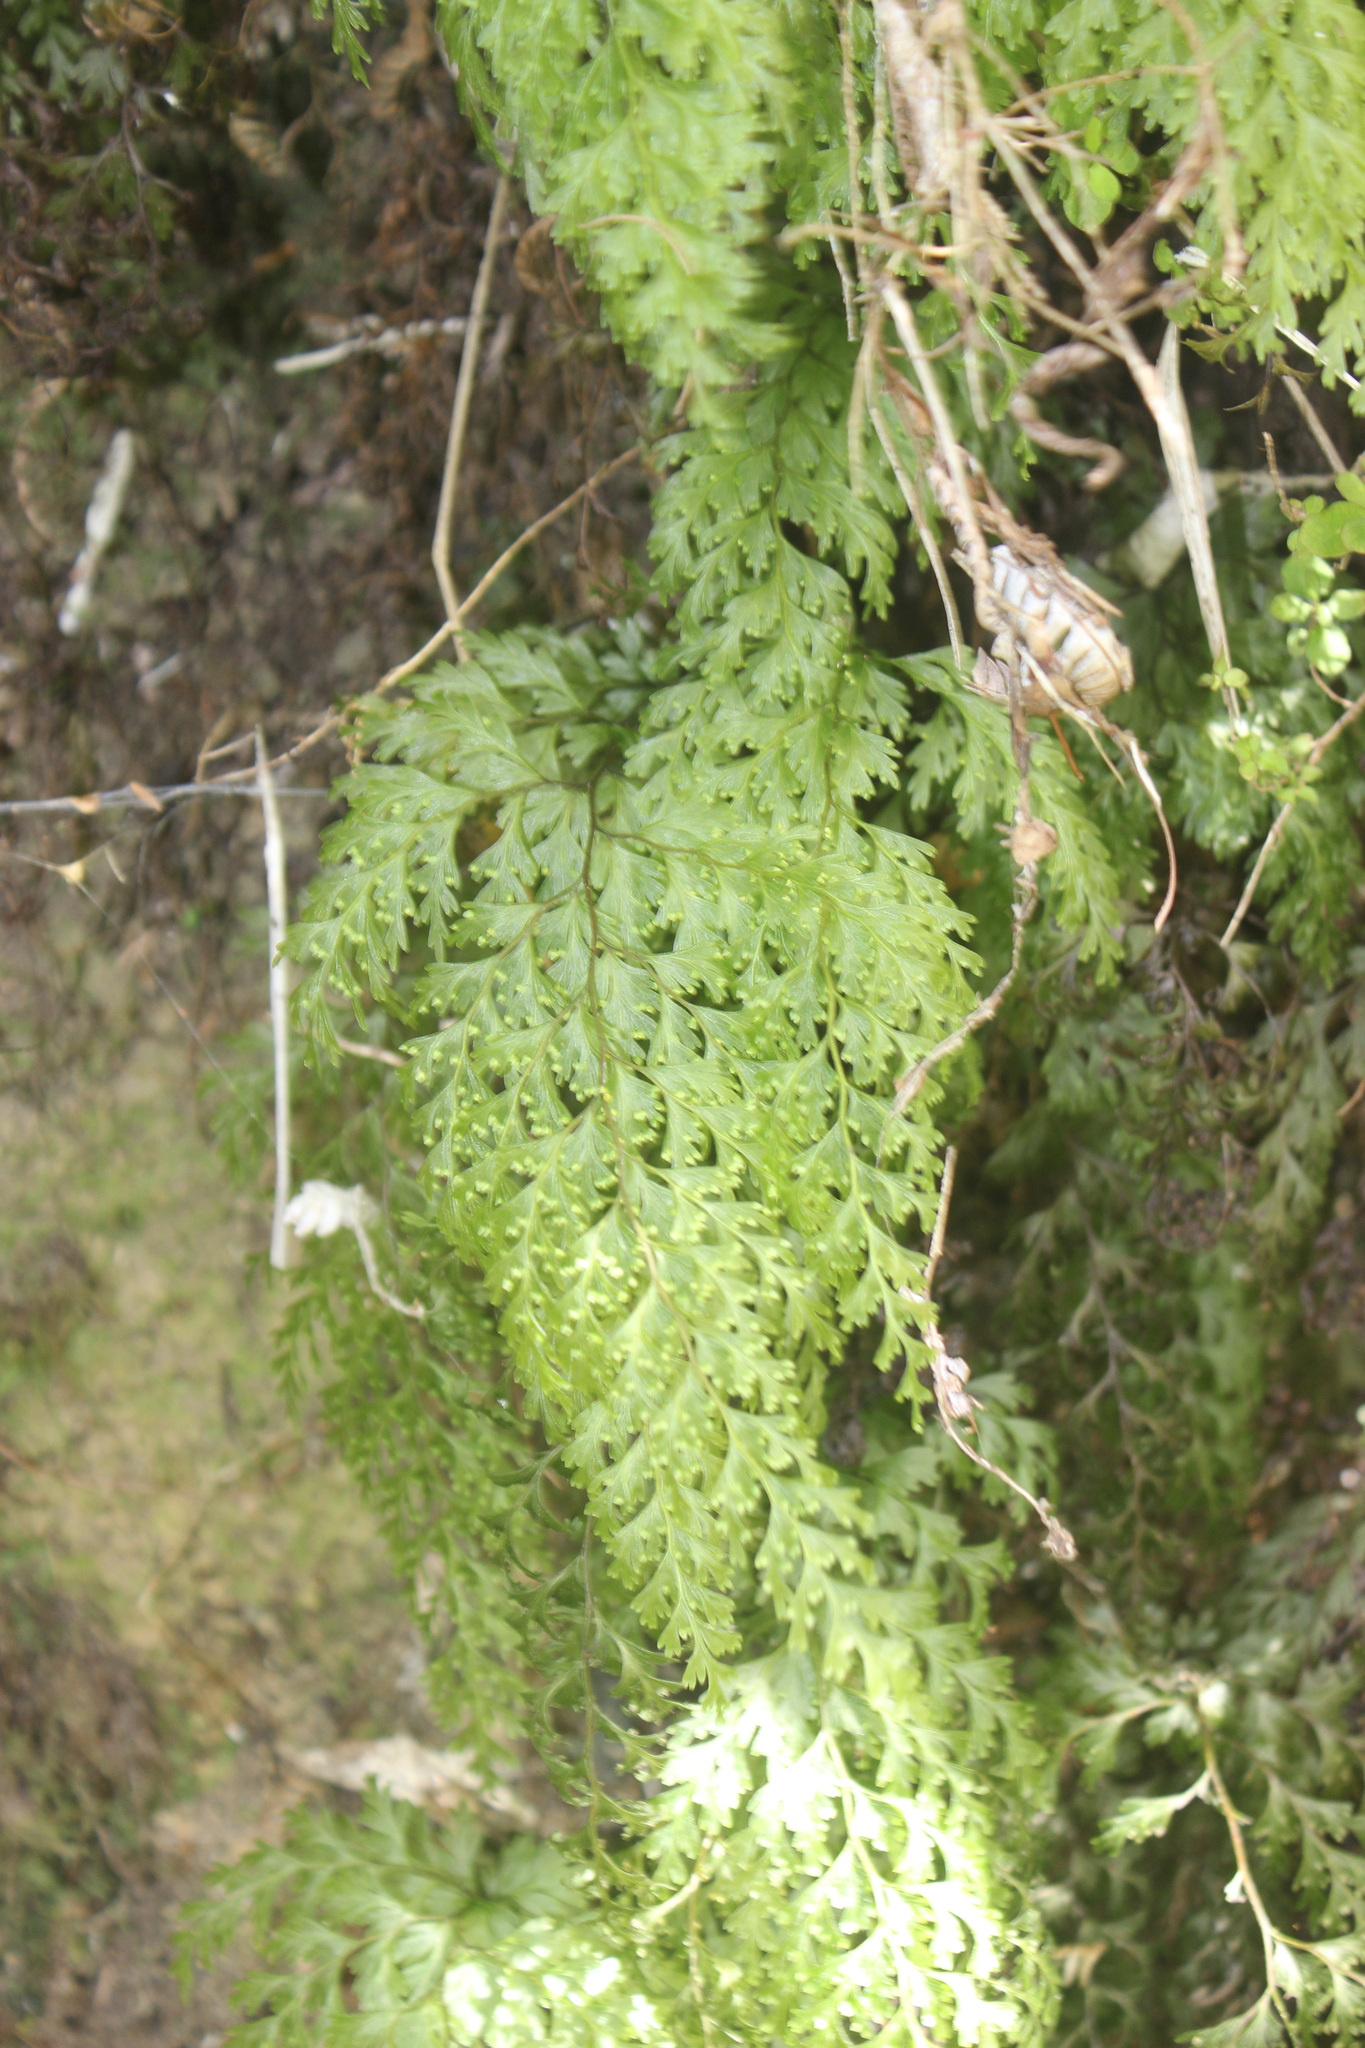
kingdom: Plantae
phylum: Tracheophyta
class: Polypodiopsida
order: Hymenophyllales
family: Hymenophyllaceae
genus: Hymenophyllum
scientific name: Hymenophyllum demissum
